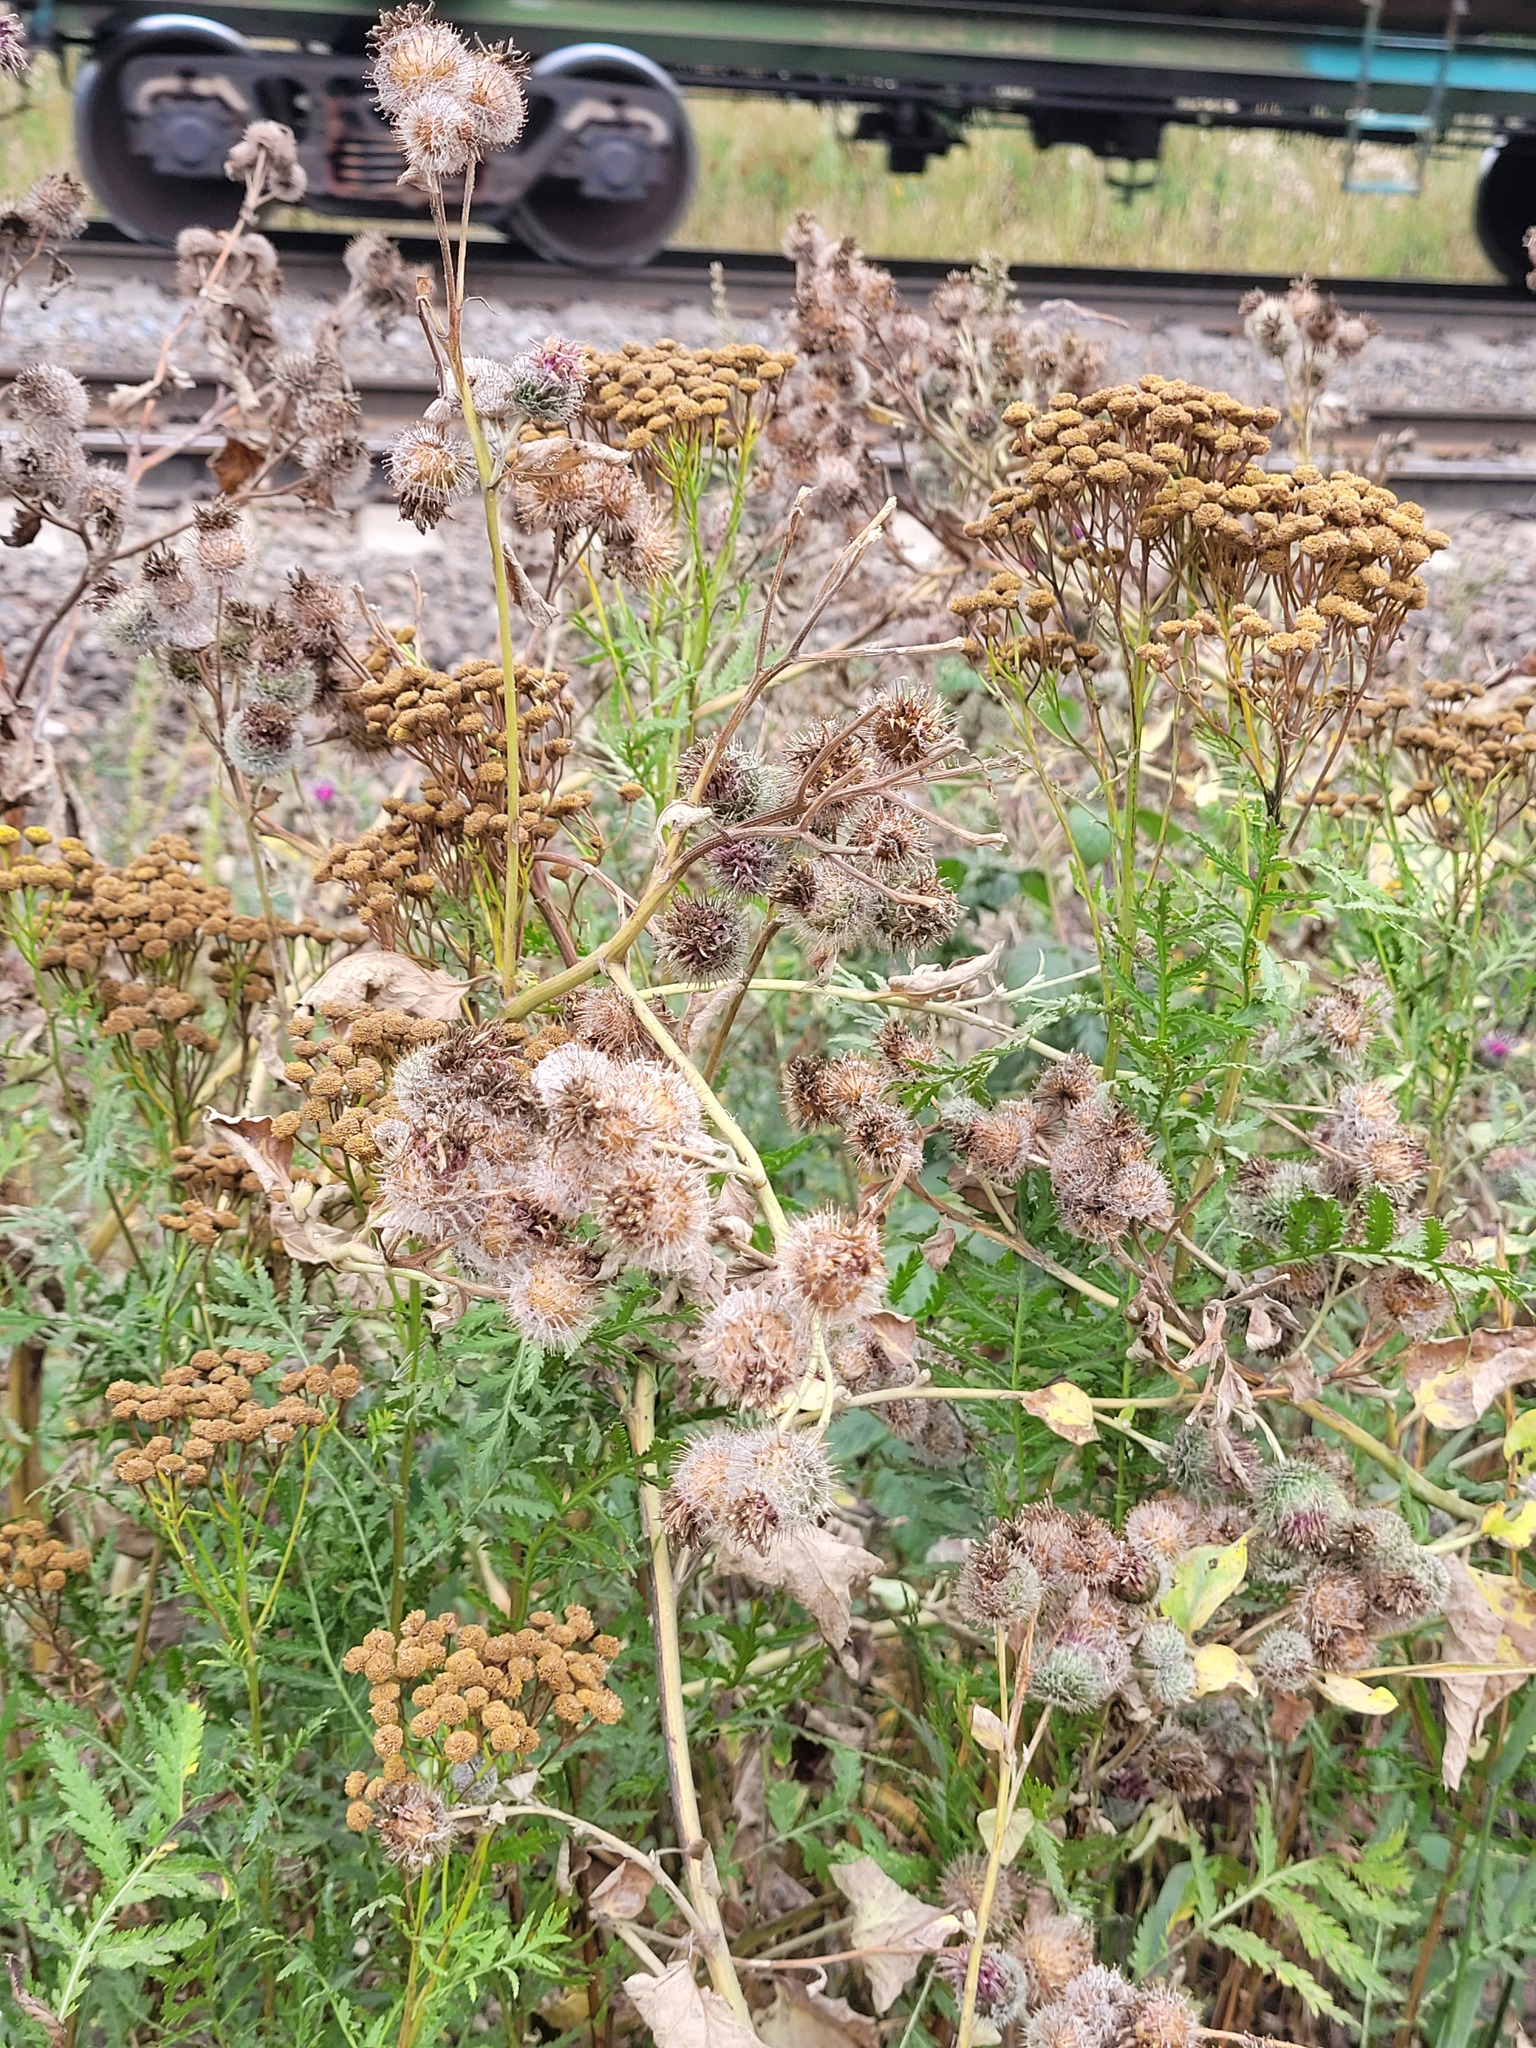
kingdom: Plantae
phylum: Tracheophyta
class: Magnoliopsida
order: Asterales
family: Asteraceae
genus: Arctium
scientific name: Arctium tomentosum
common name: Woolly burdock
